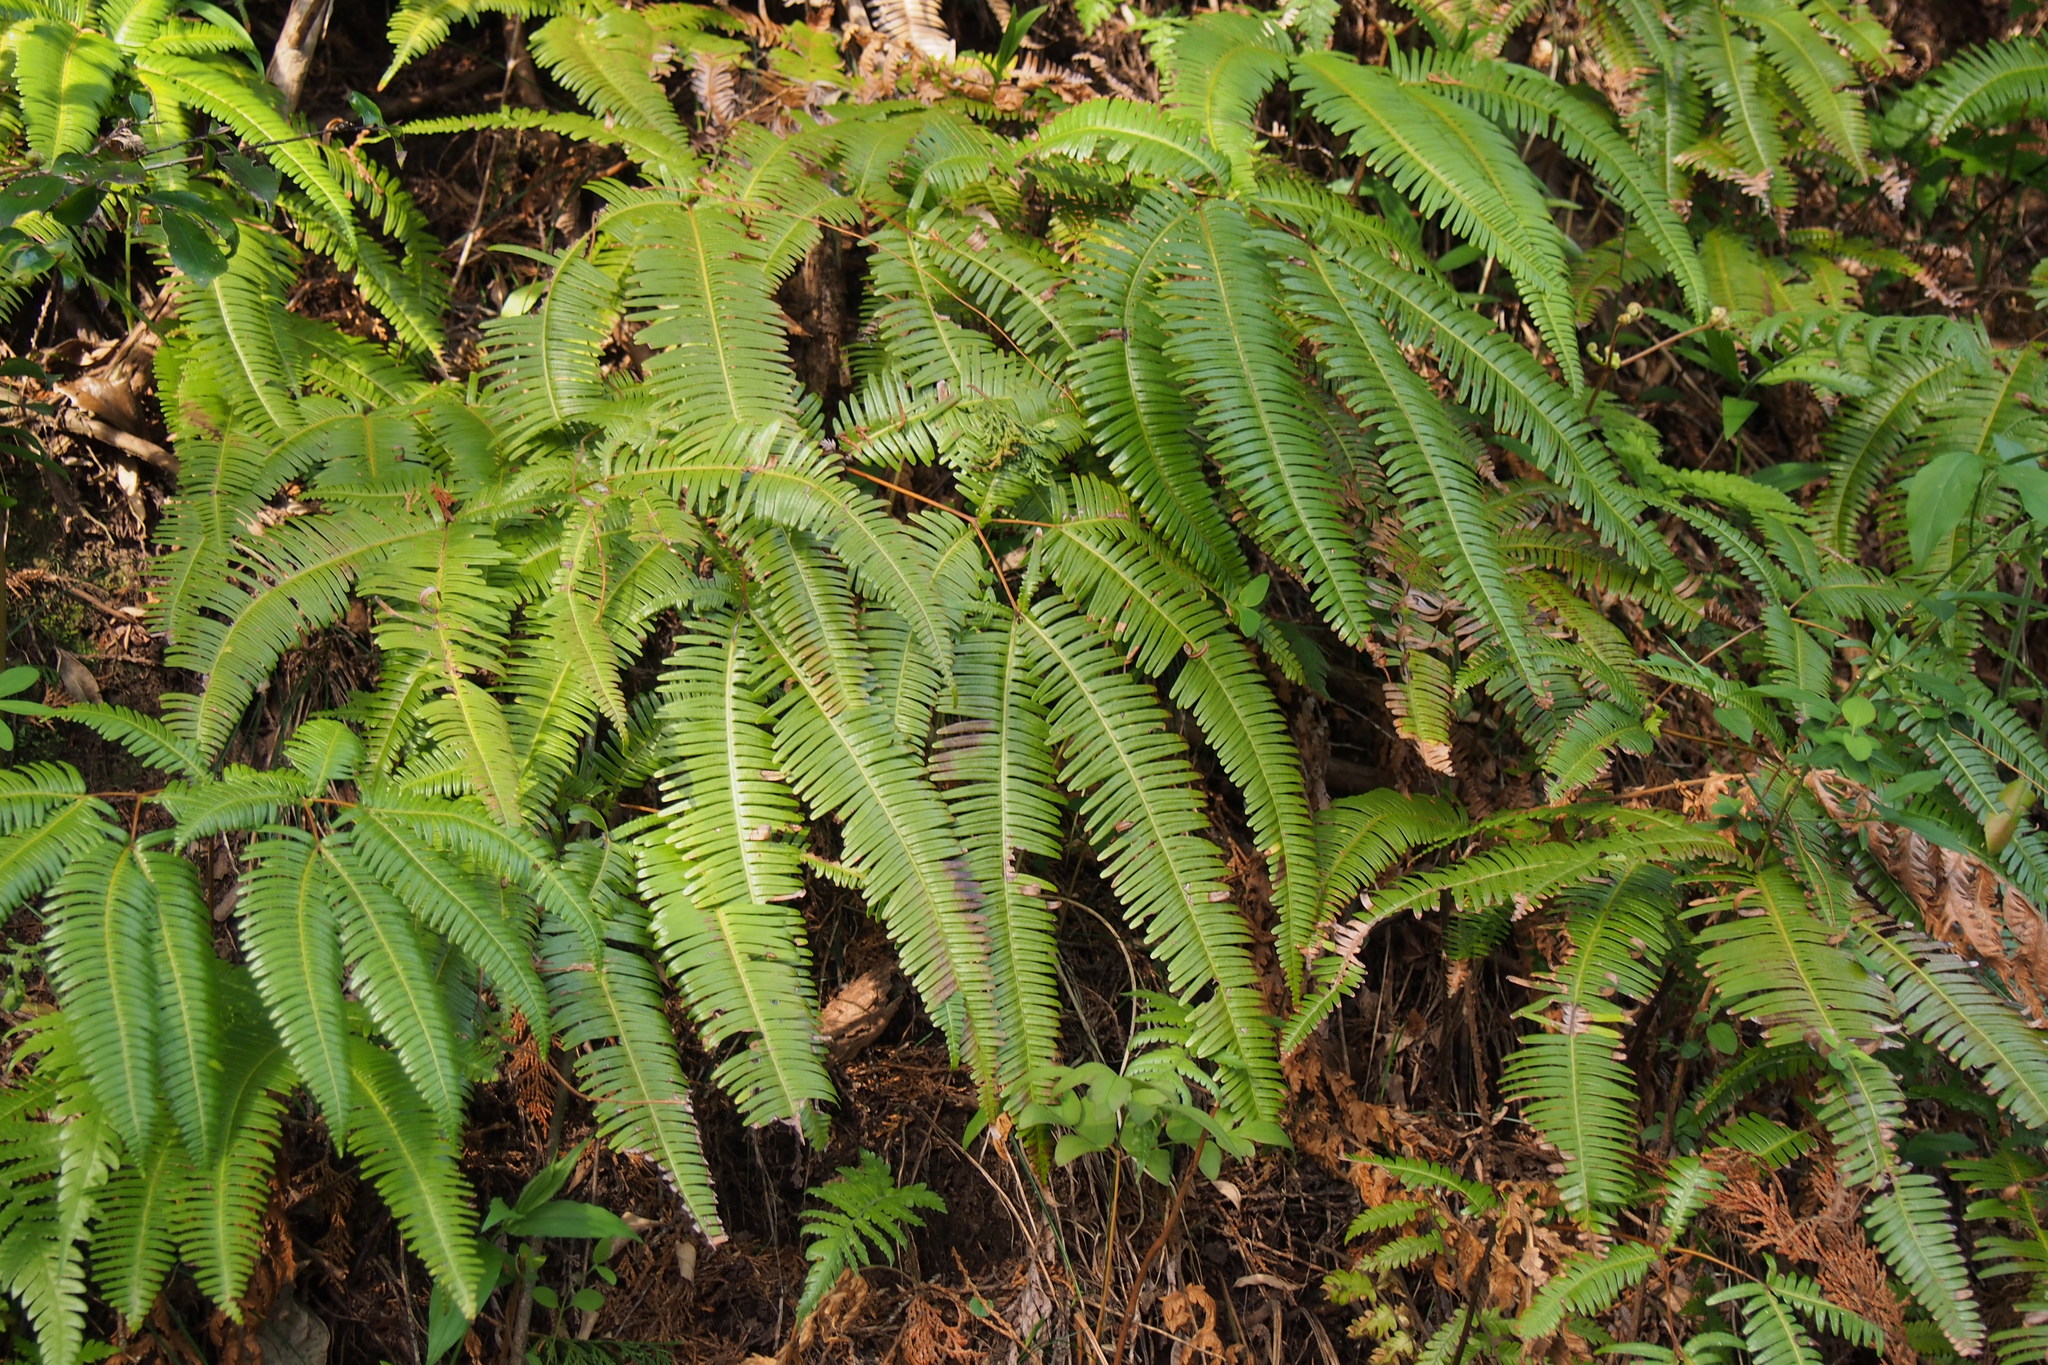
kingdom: Plantae
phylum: Tracheophyta
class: Polypodiopsida
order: Gleicheniales
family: Gleicheniaceae
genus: Dicranopteris
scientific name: Dicranopteris linearis
